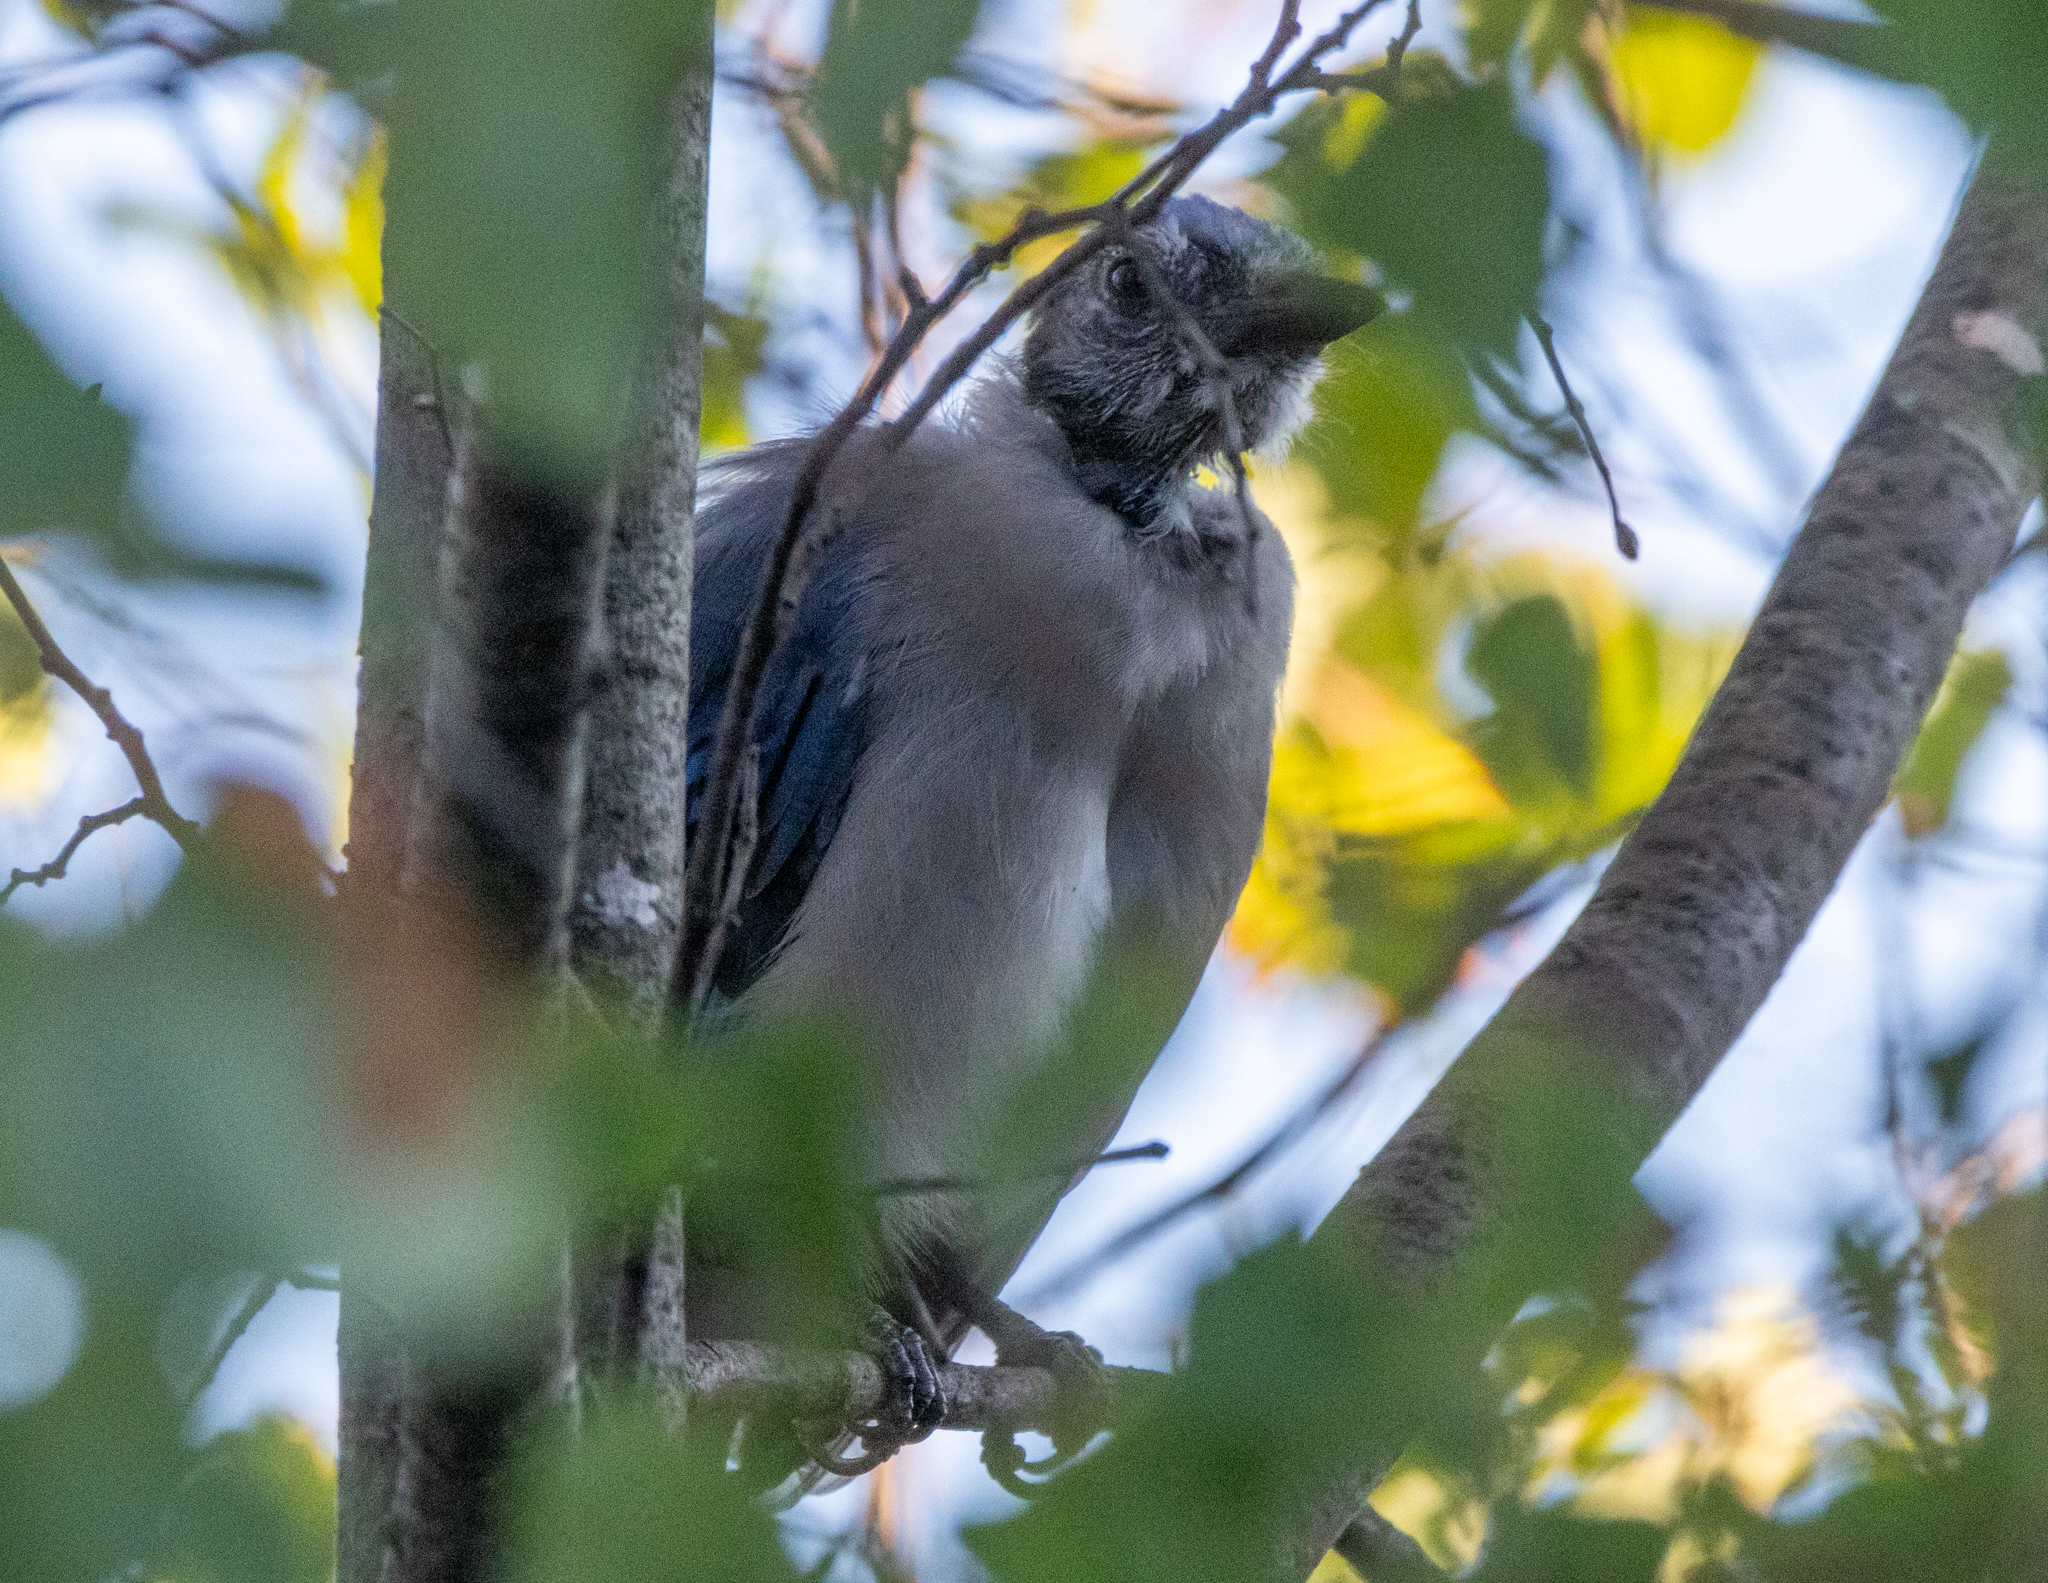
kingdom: Animalia
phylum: Chordata
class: Aves
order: Passeriformes
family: Corvidae
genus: Cyanocitta
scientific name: Cyanocitta cristata
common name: Blue jay
